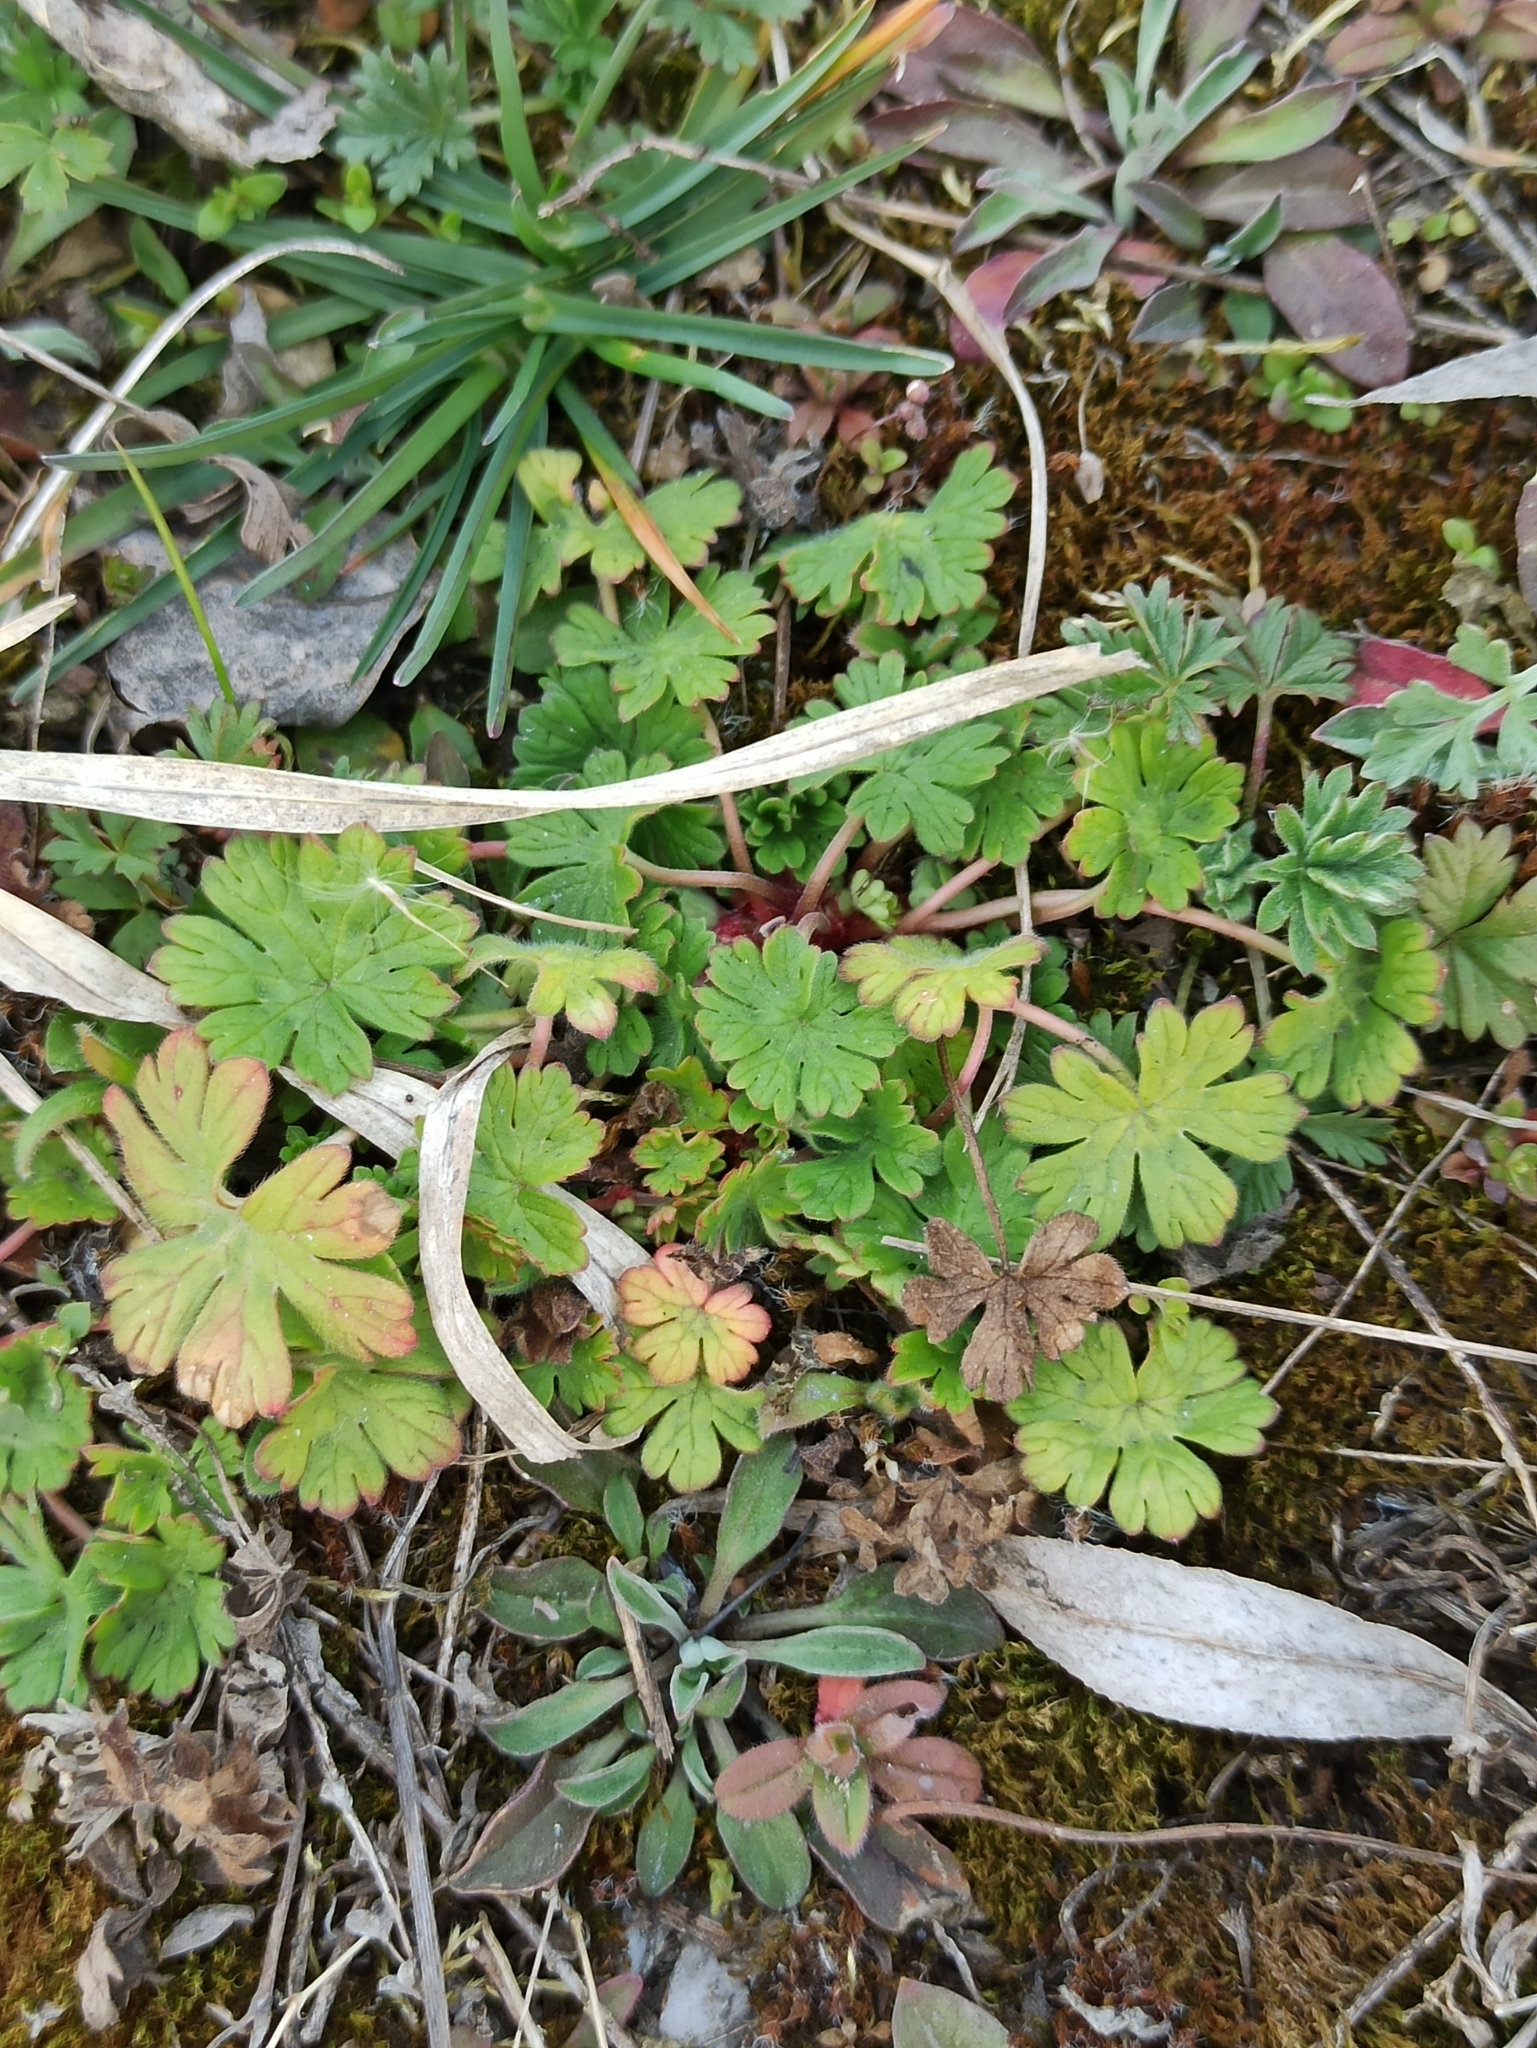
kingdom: Plantae
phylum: Tracheophyta
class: Magnoliopsida
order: Geraniales
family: Geraniaceae
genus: Geranium
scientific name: Geranium pusillum
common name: Small geranium
